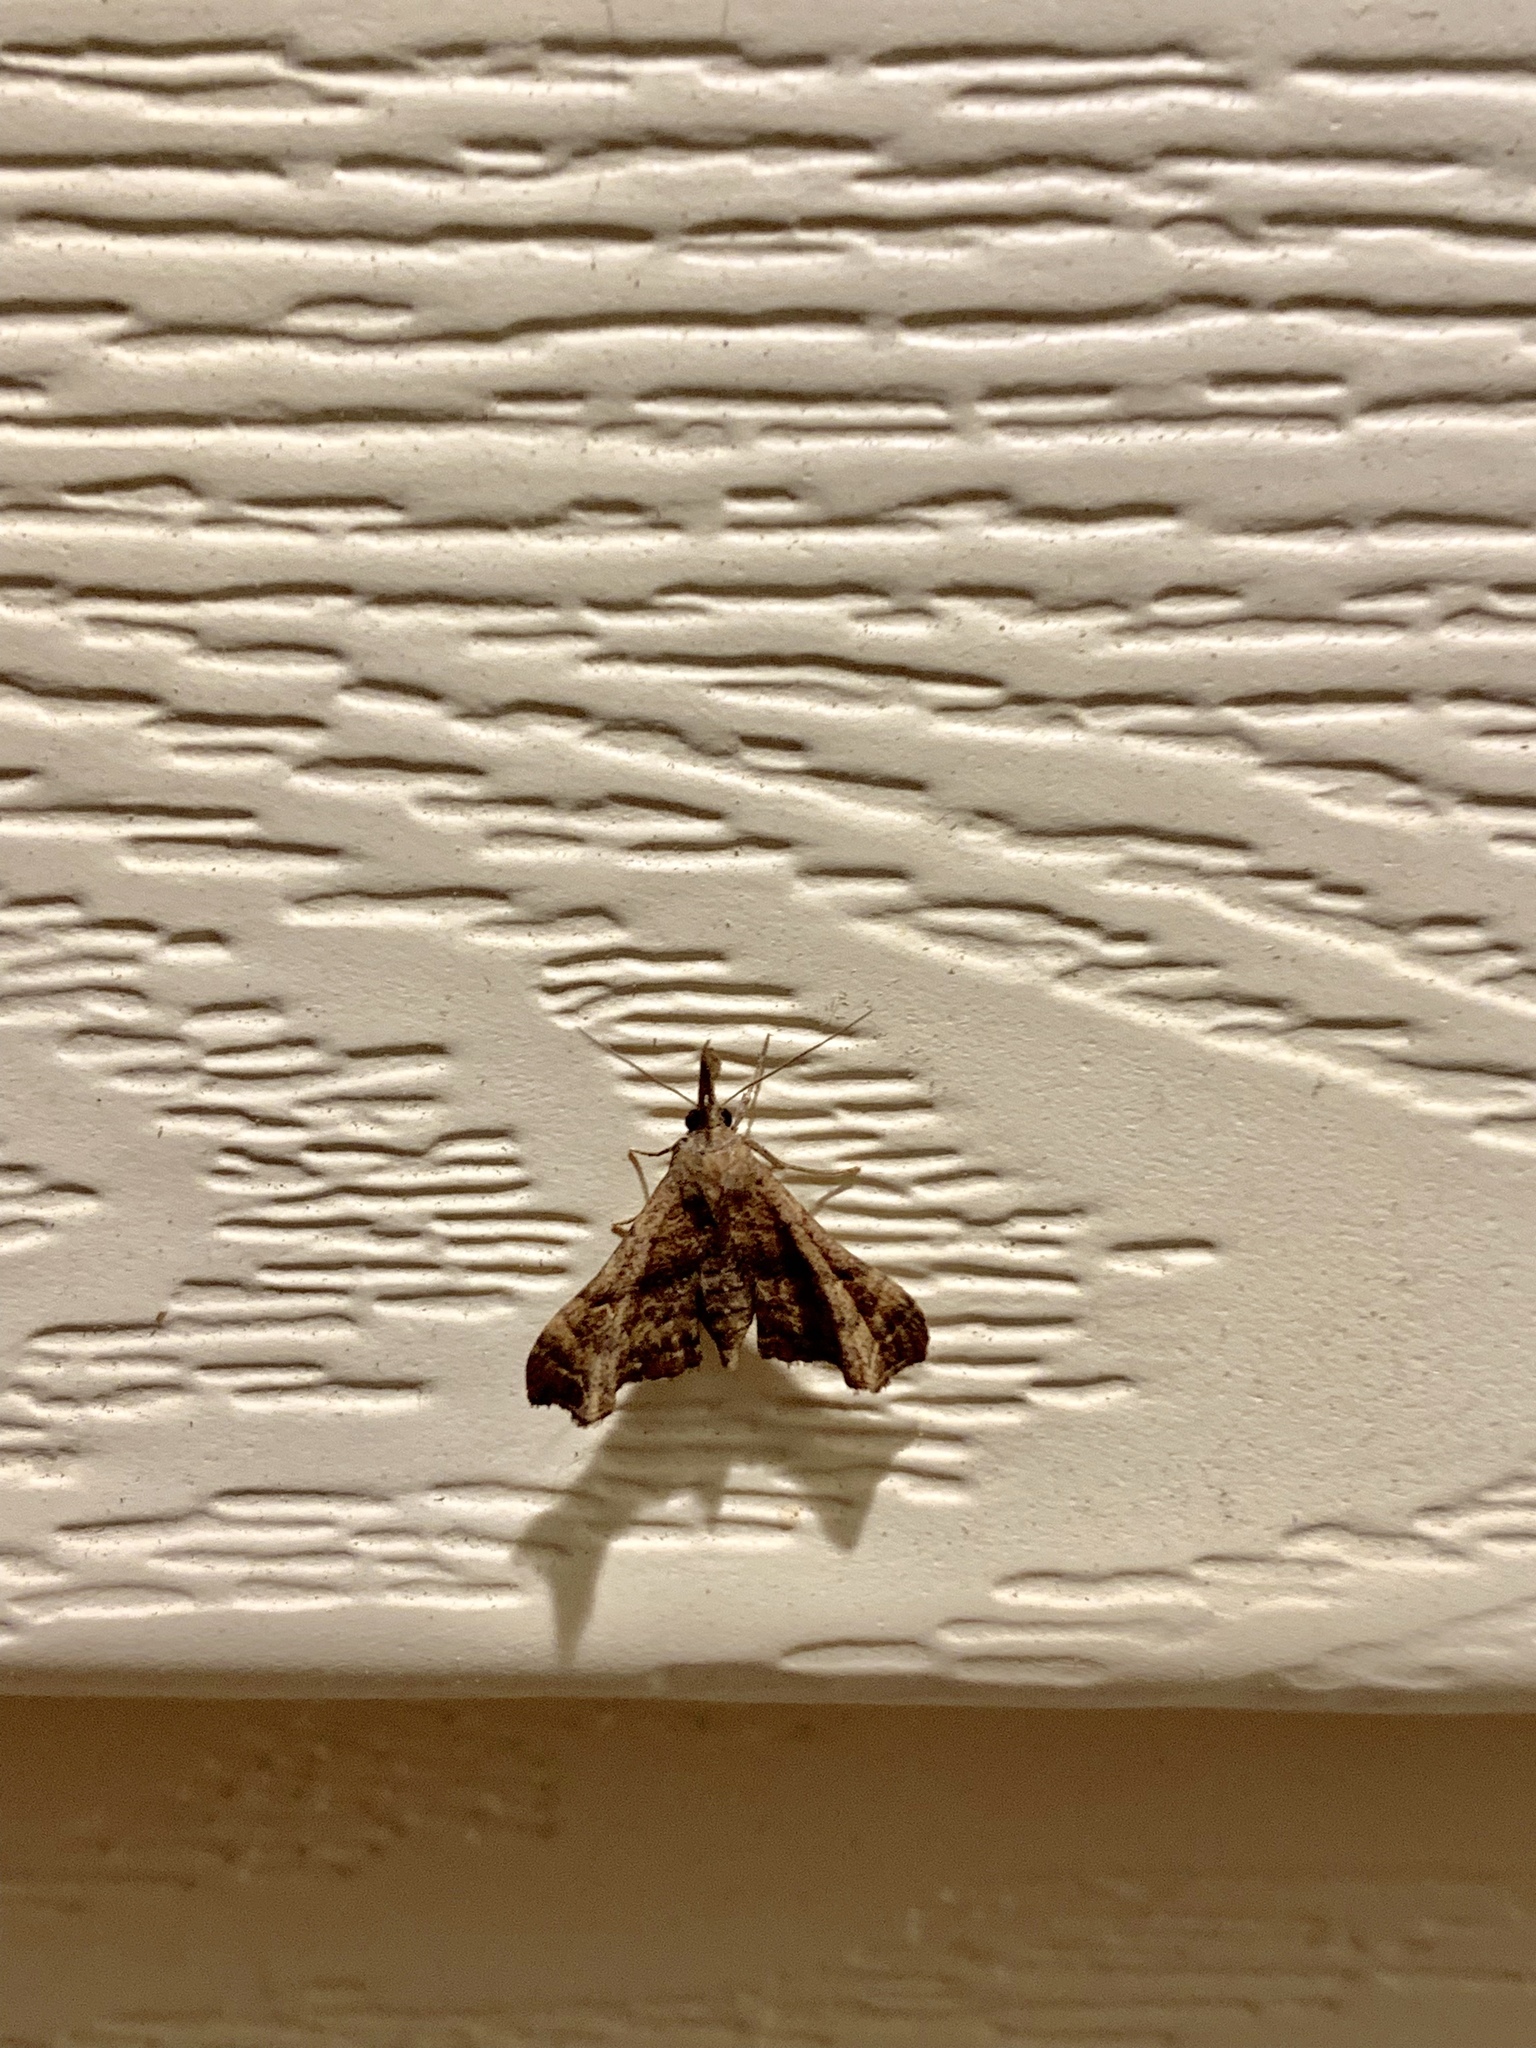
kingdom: Animalia
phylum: Arthropoda
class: Insecta
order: Lepidoptera
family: Erebidae
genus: Palthis
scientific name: Palthis asopialis
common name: Faint-spotted palthis moth
